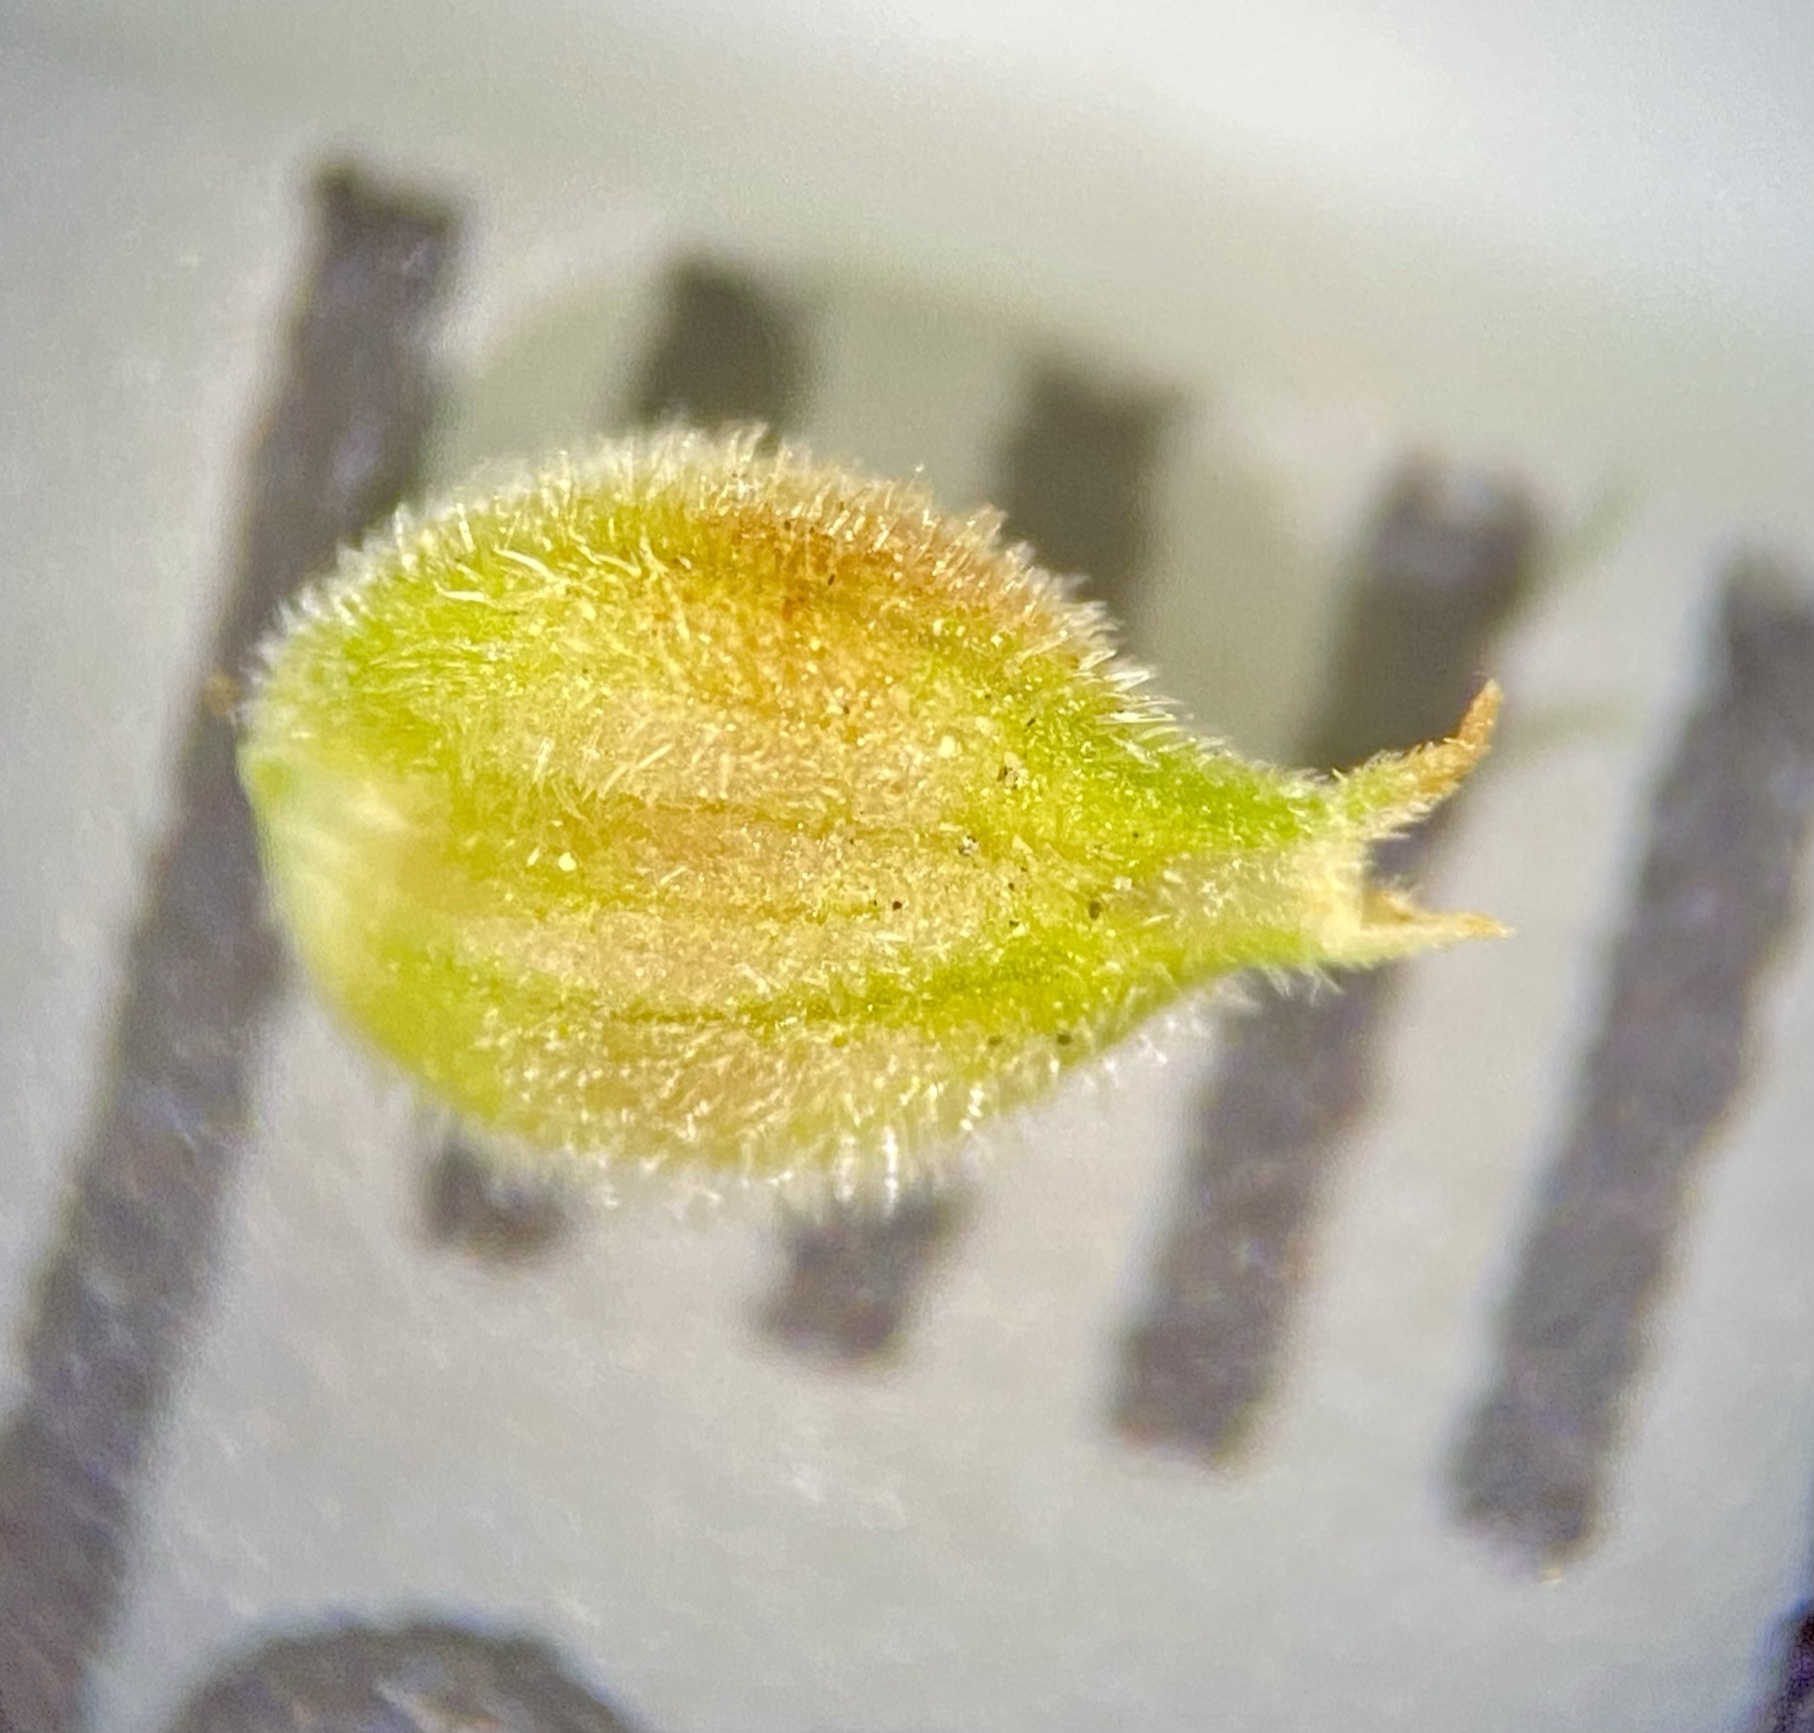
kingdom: Plantae
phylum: Tracheophyta
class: Liliopsida
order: Poales
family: Cyperaceae
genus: Carex
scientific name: Carex pellita
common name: Woolly sedge
